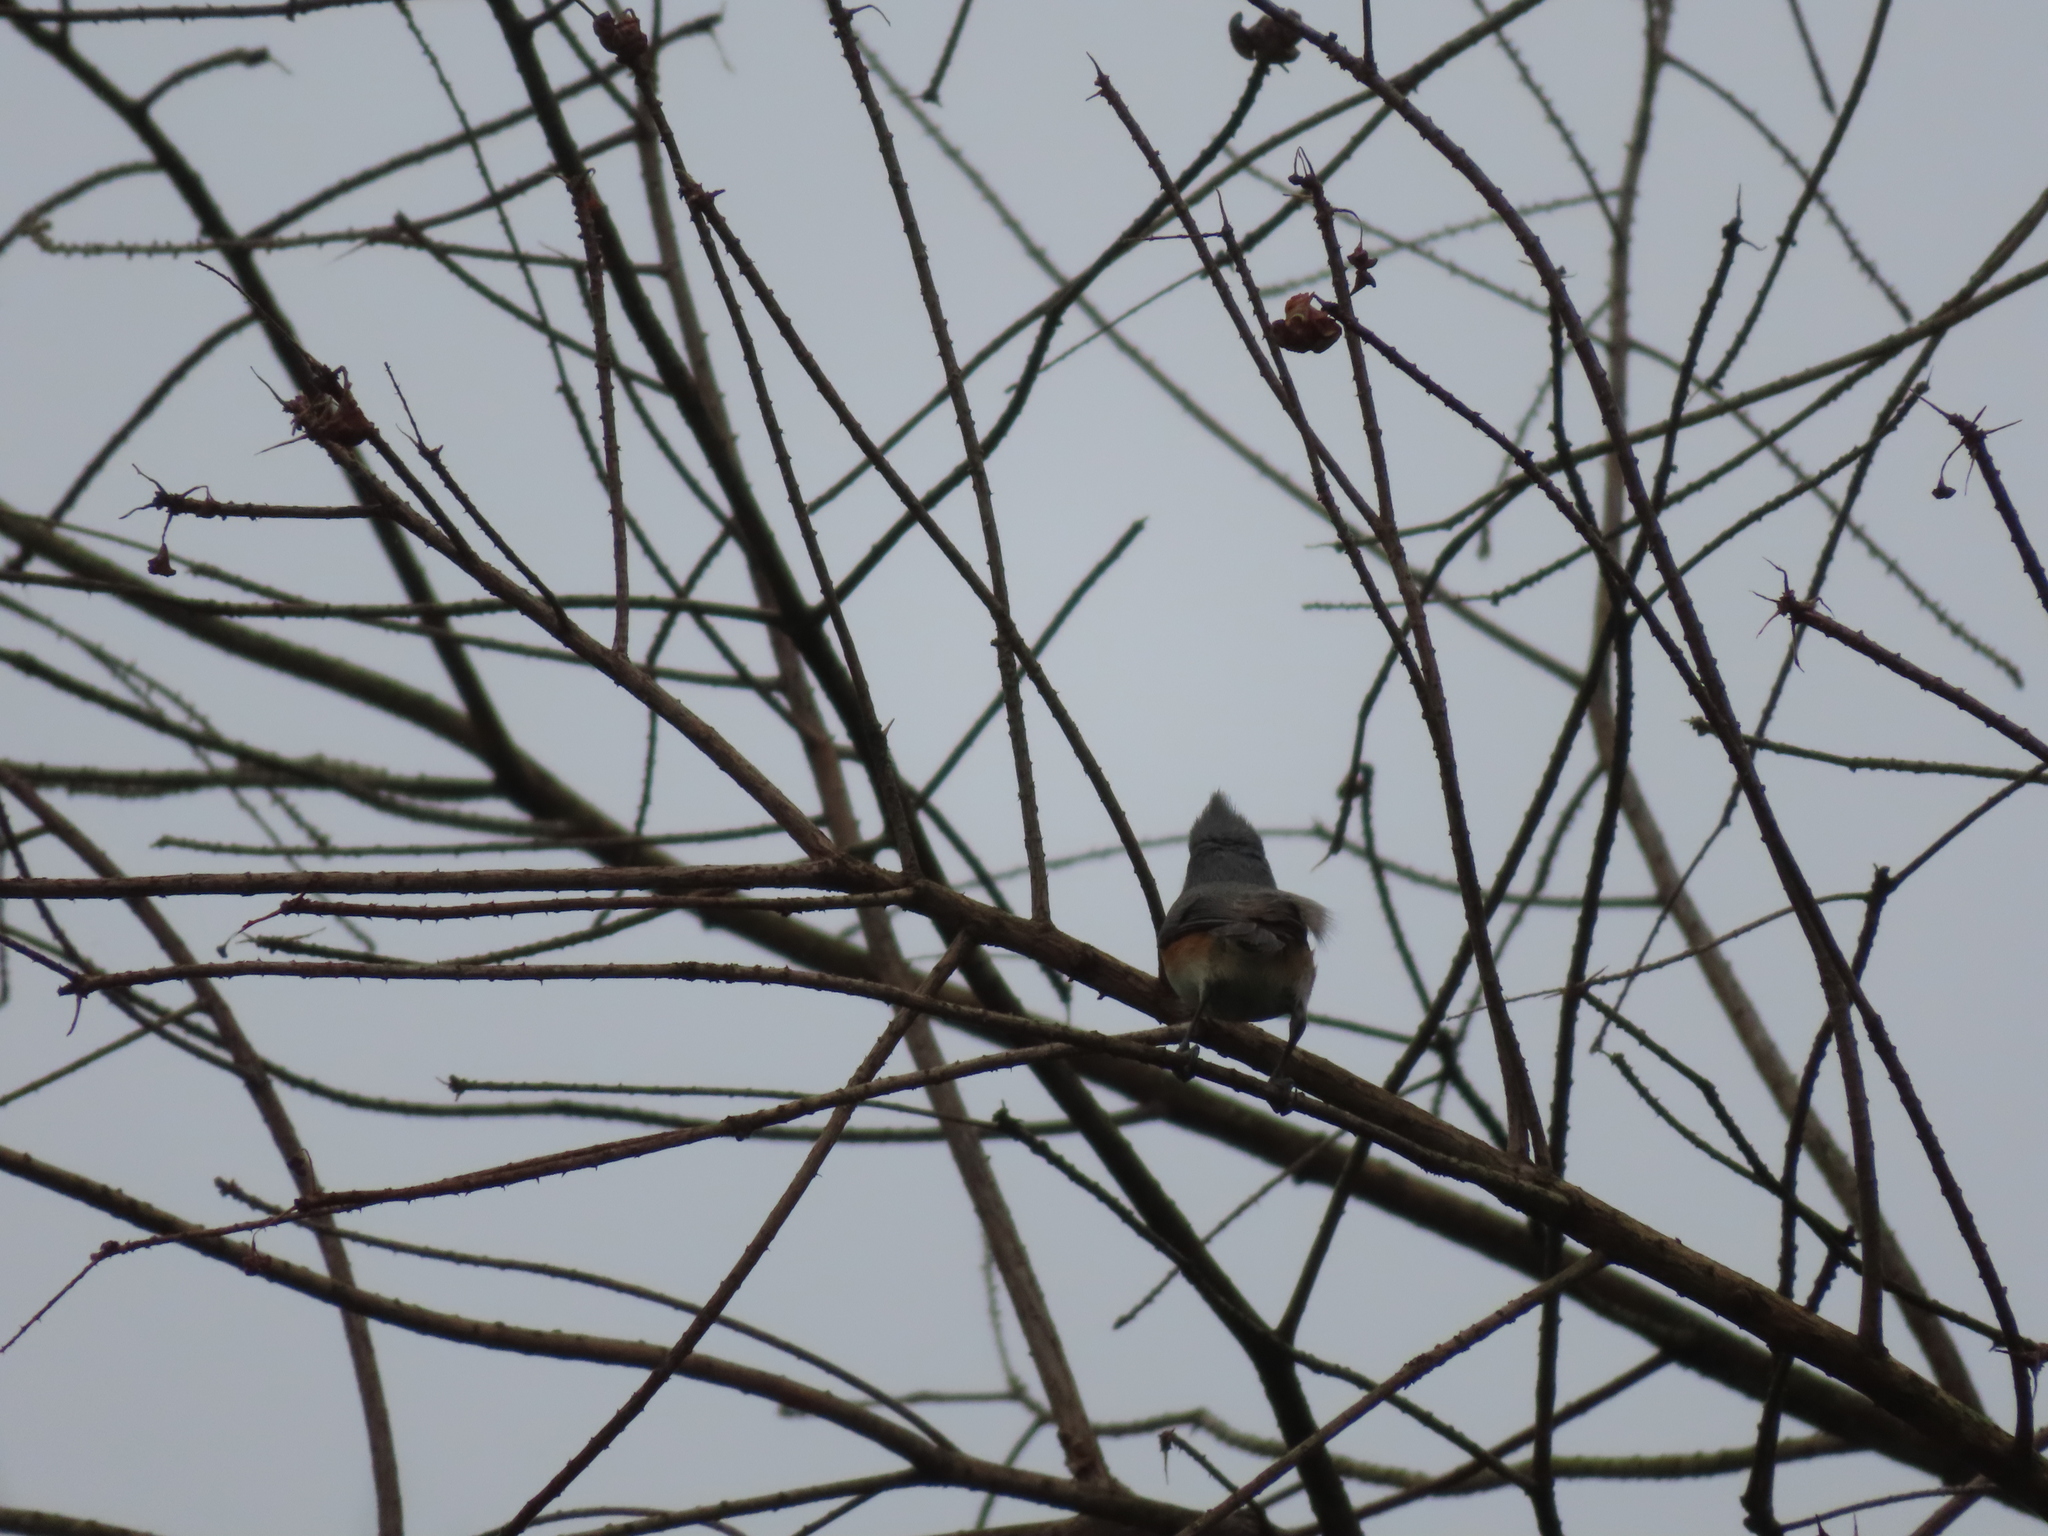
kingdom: Animalia
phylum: Chordata
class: Aves
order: Passeriformes
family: Paridae
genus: Baeolophus
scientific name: Baeolophus bicolor
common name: Tufted titmouse
